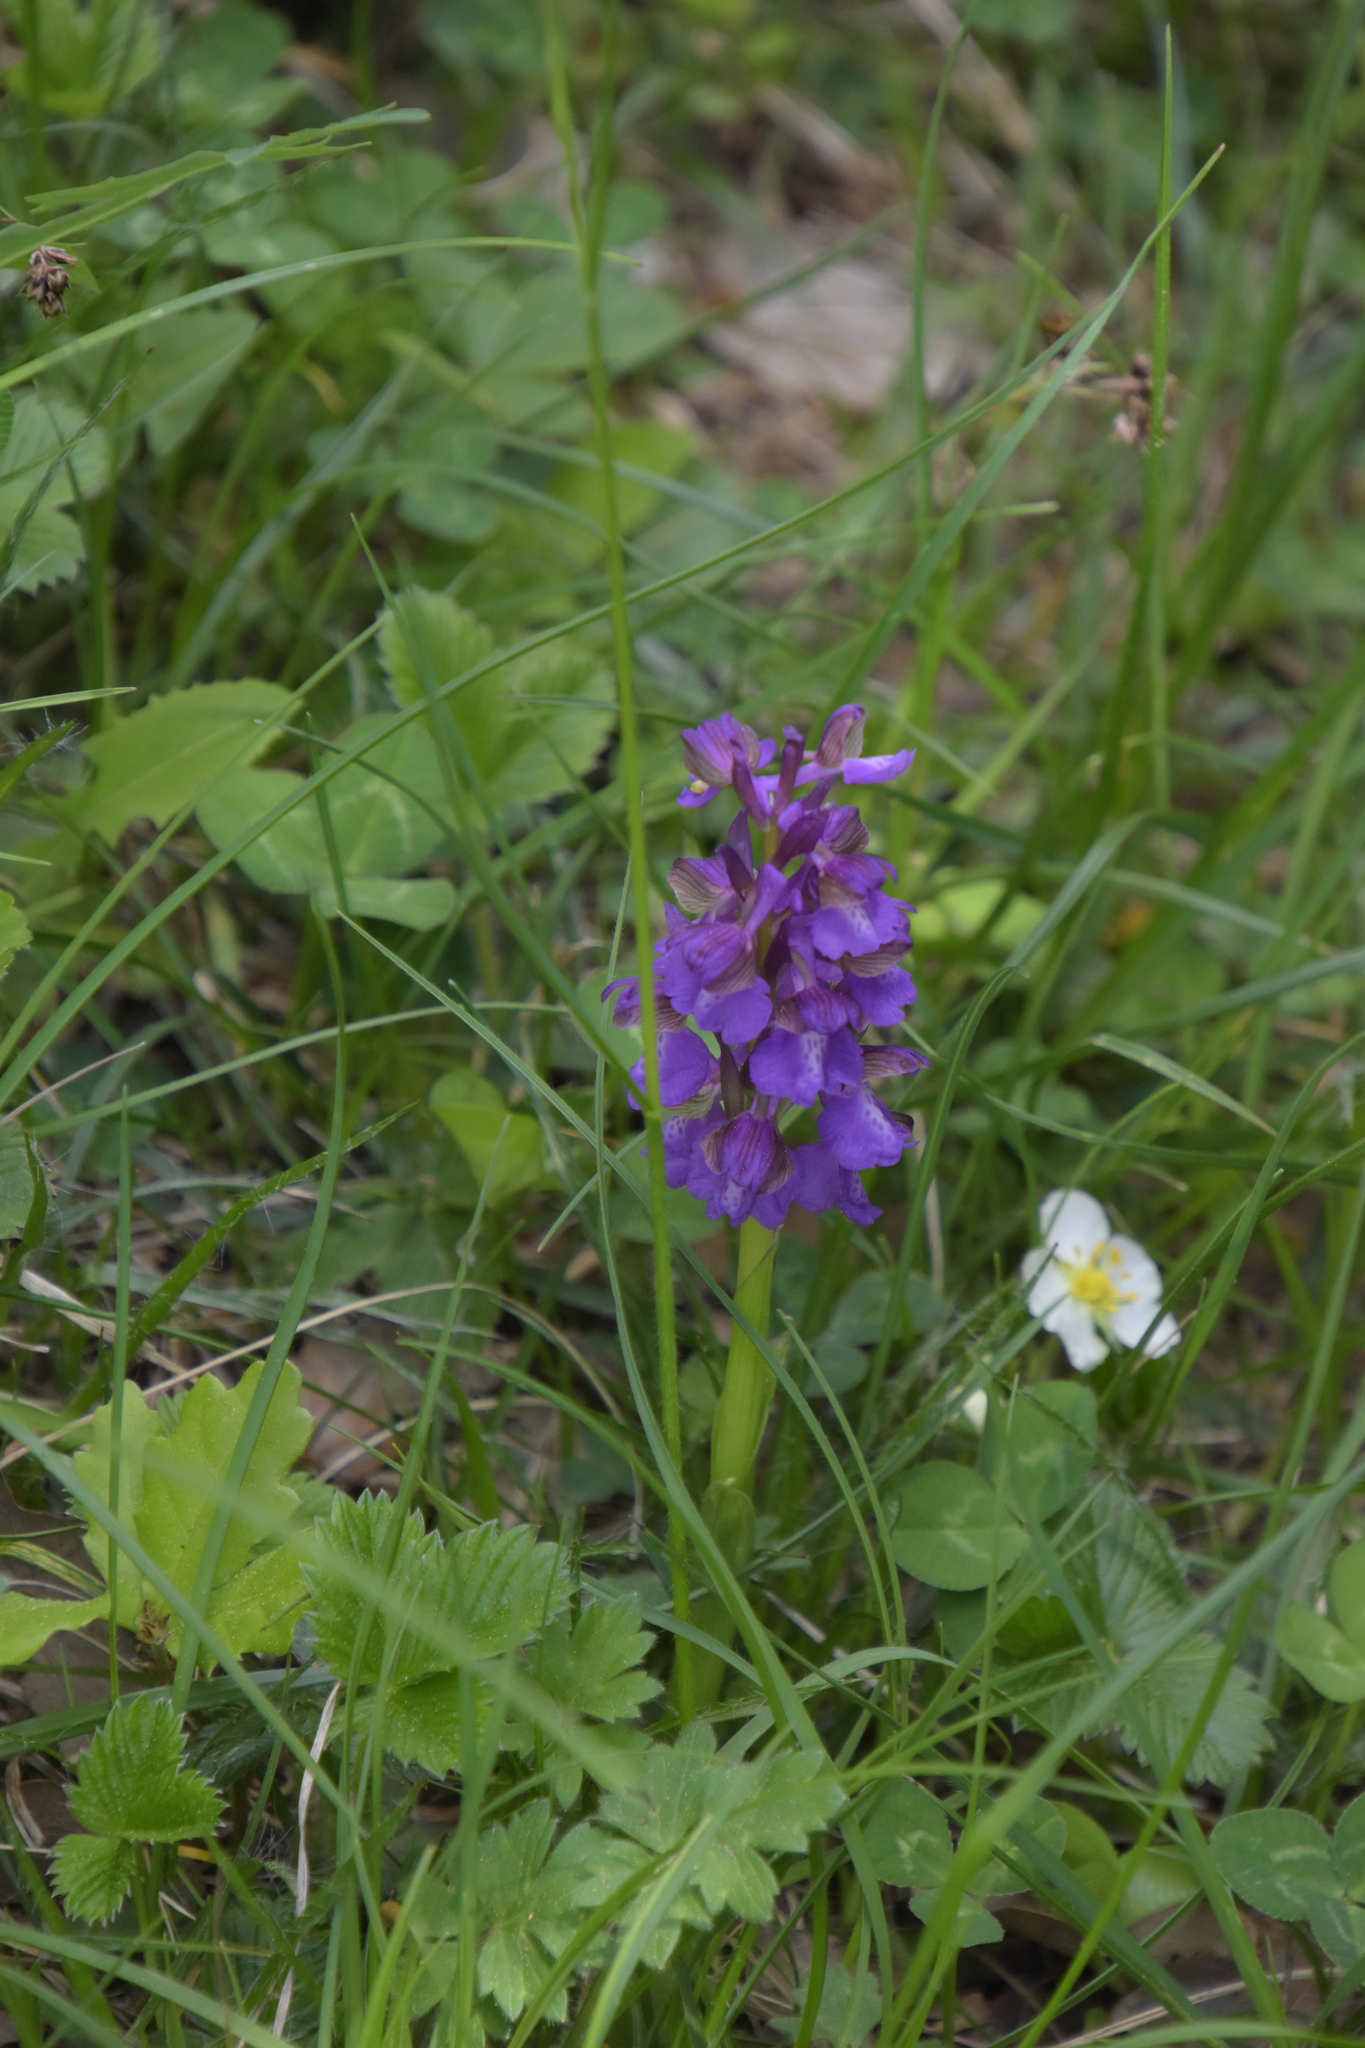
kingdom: Plantae
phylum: Tracheophyta
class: Liliopsida
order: Asparagales
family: Orchidaceae
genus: Anacamptis
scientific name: Anacamptis morio
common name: Green-winged orchid
